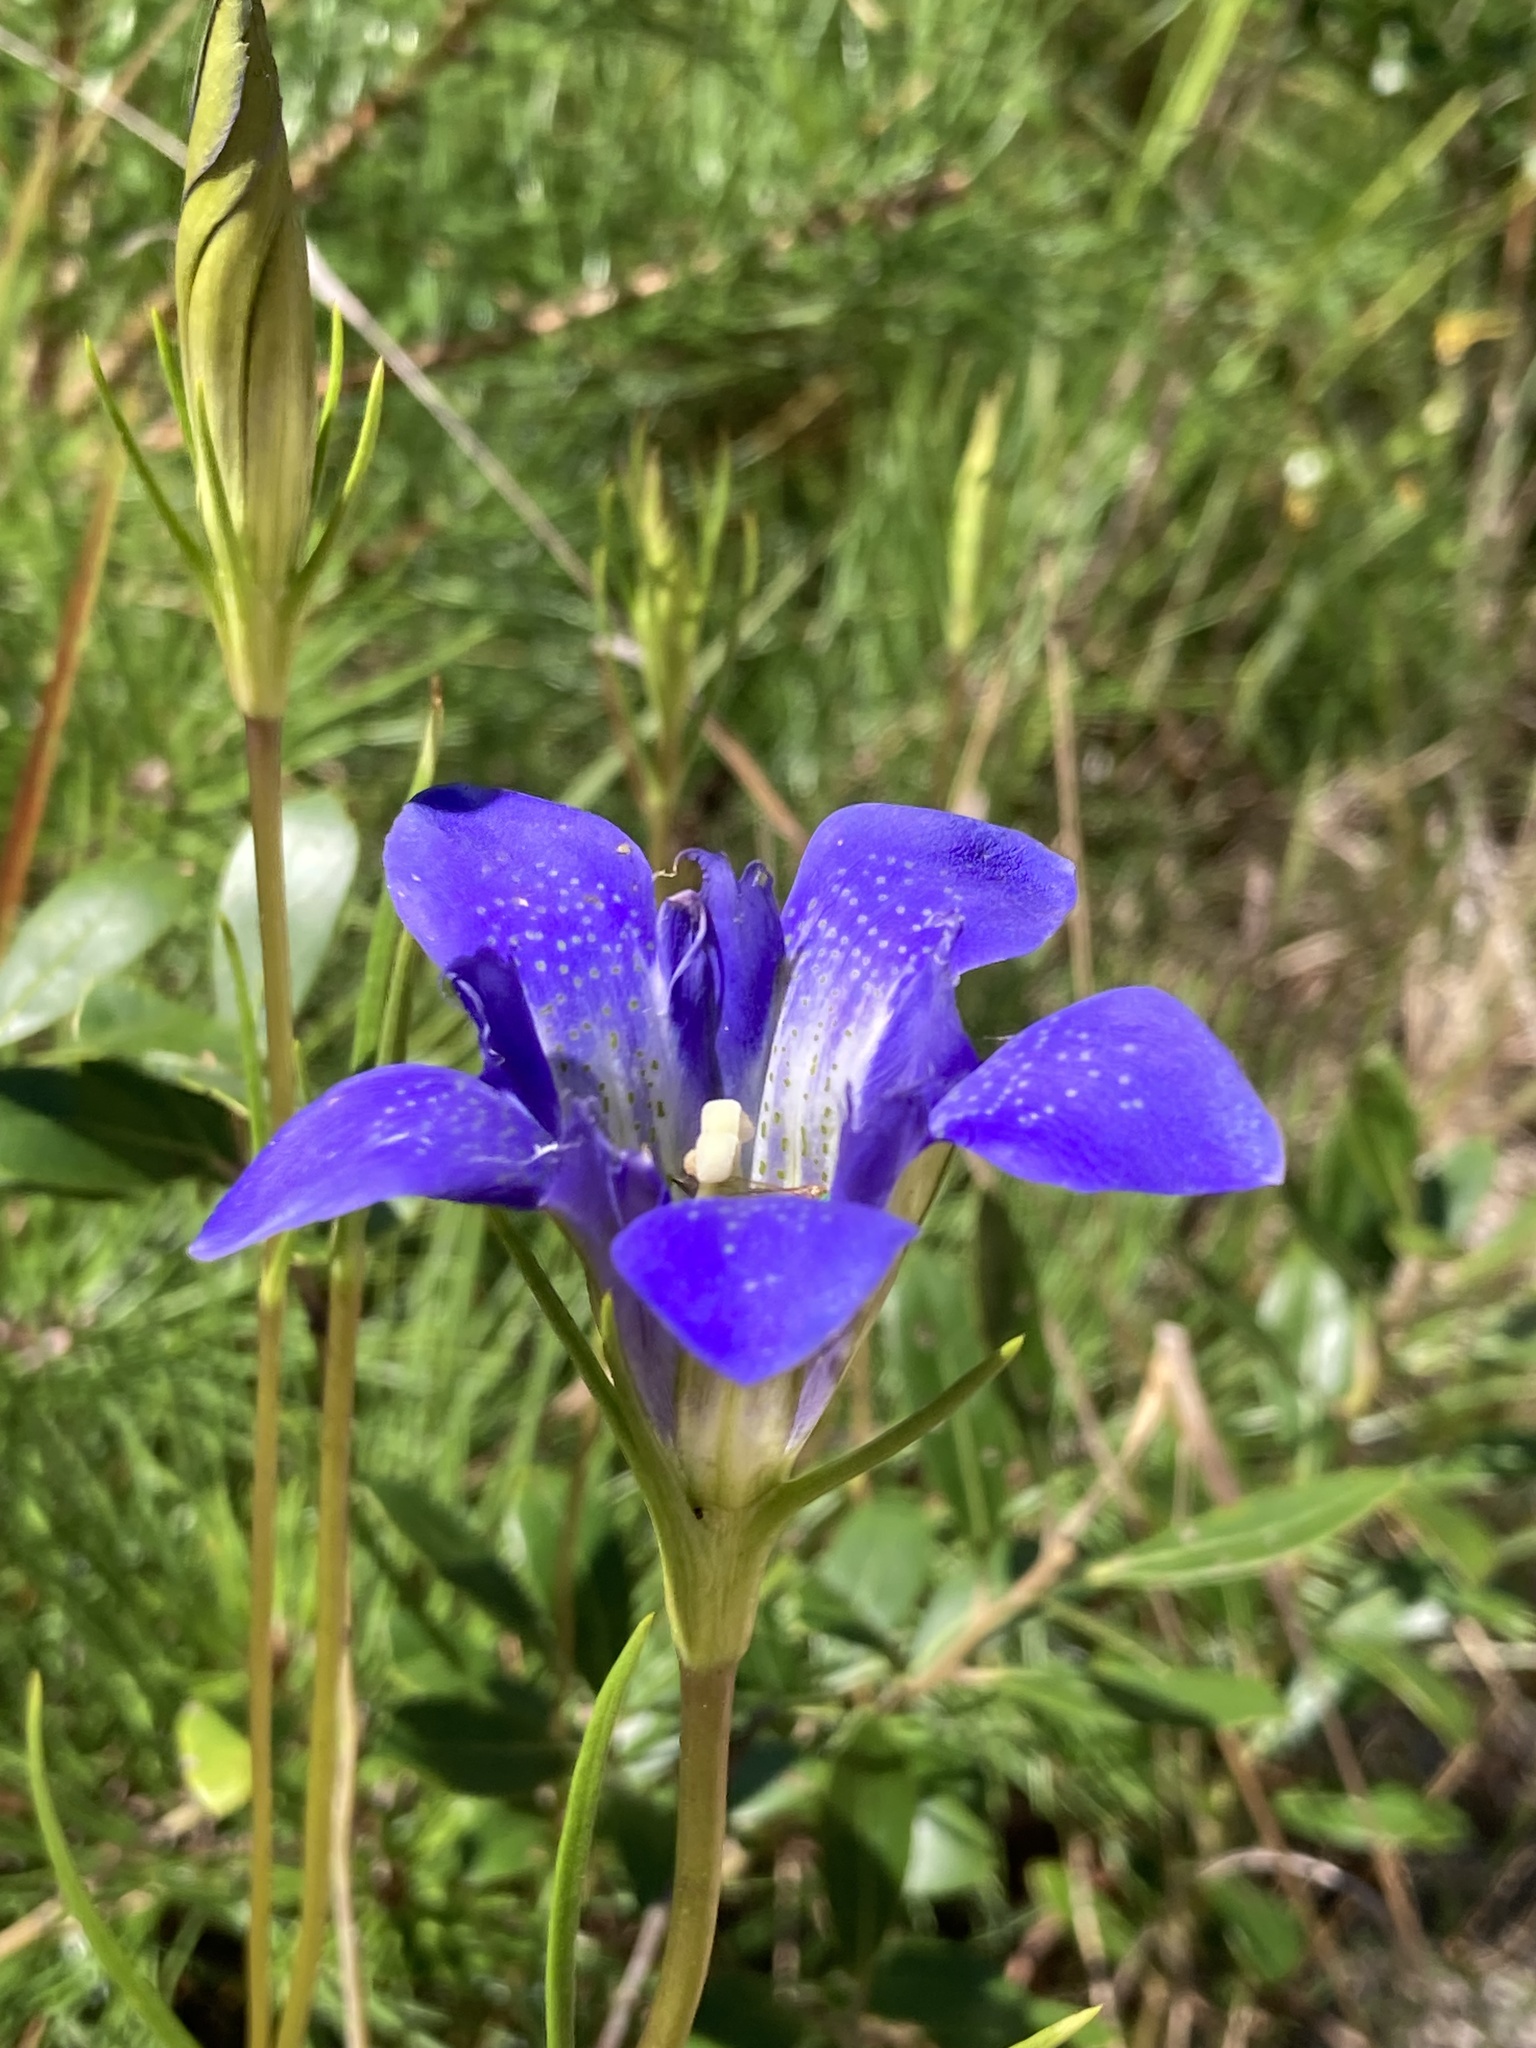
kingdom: Plantae
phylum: Tracheophyta
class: Magnoliopsida
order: Gentianales
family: Gentianaceae
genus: Gentiana
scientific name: Gentiana autumnalis
